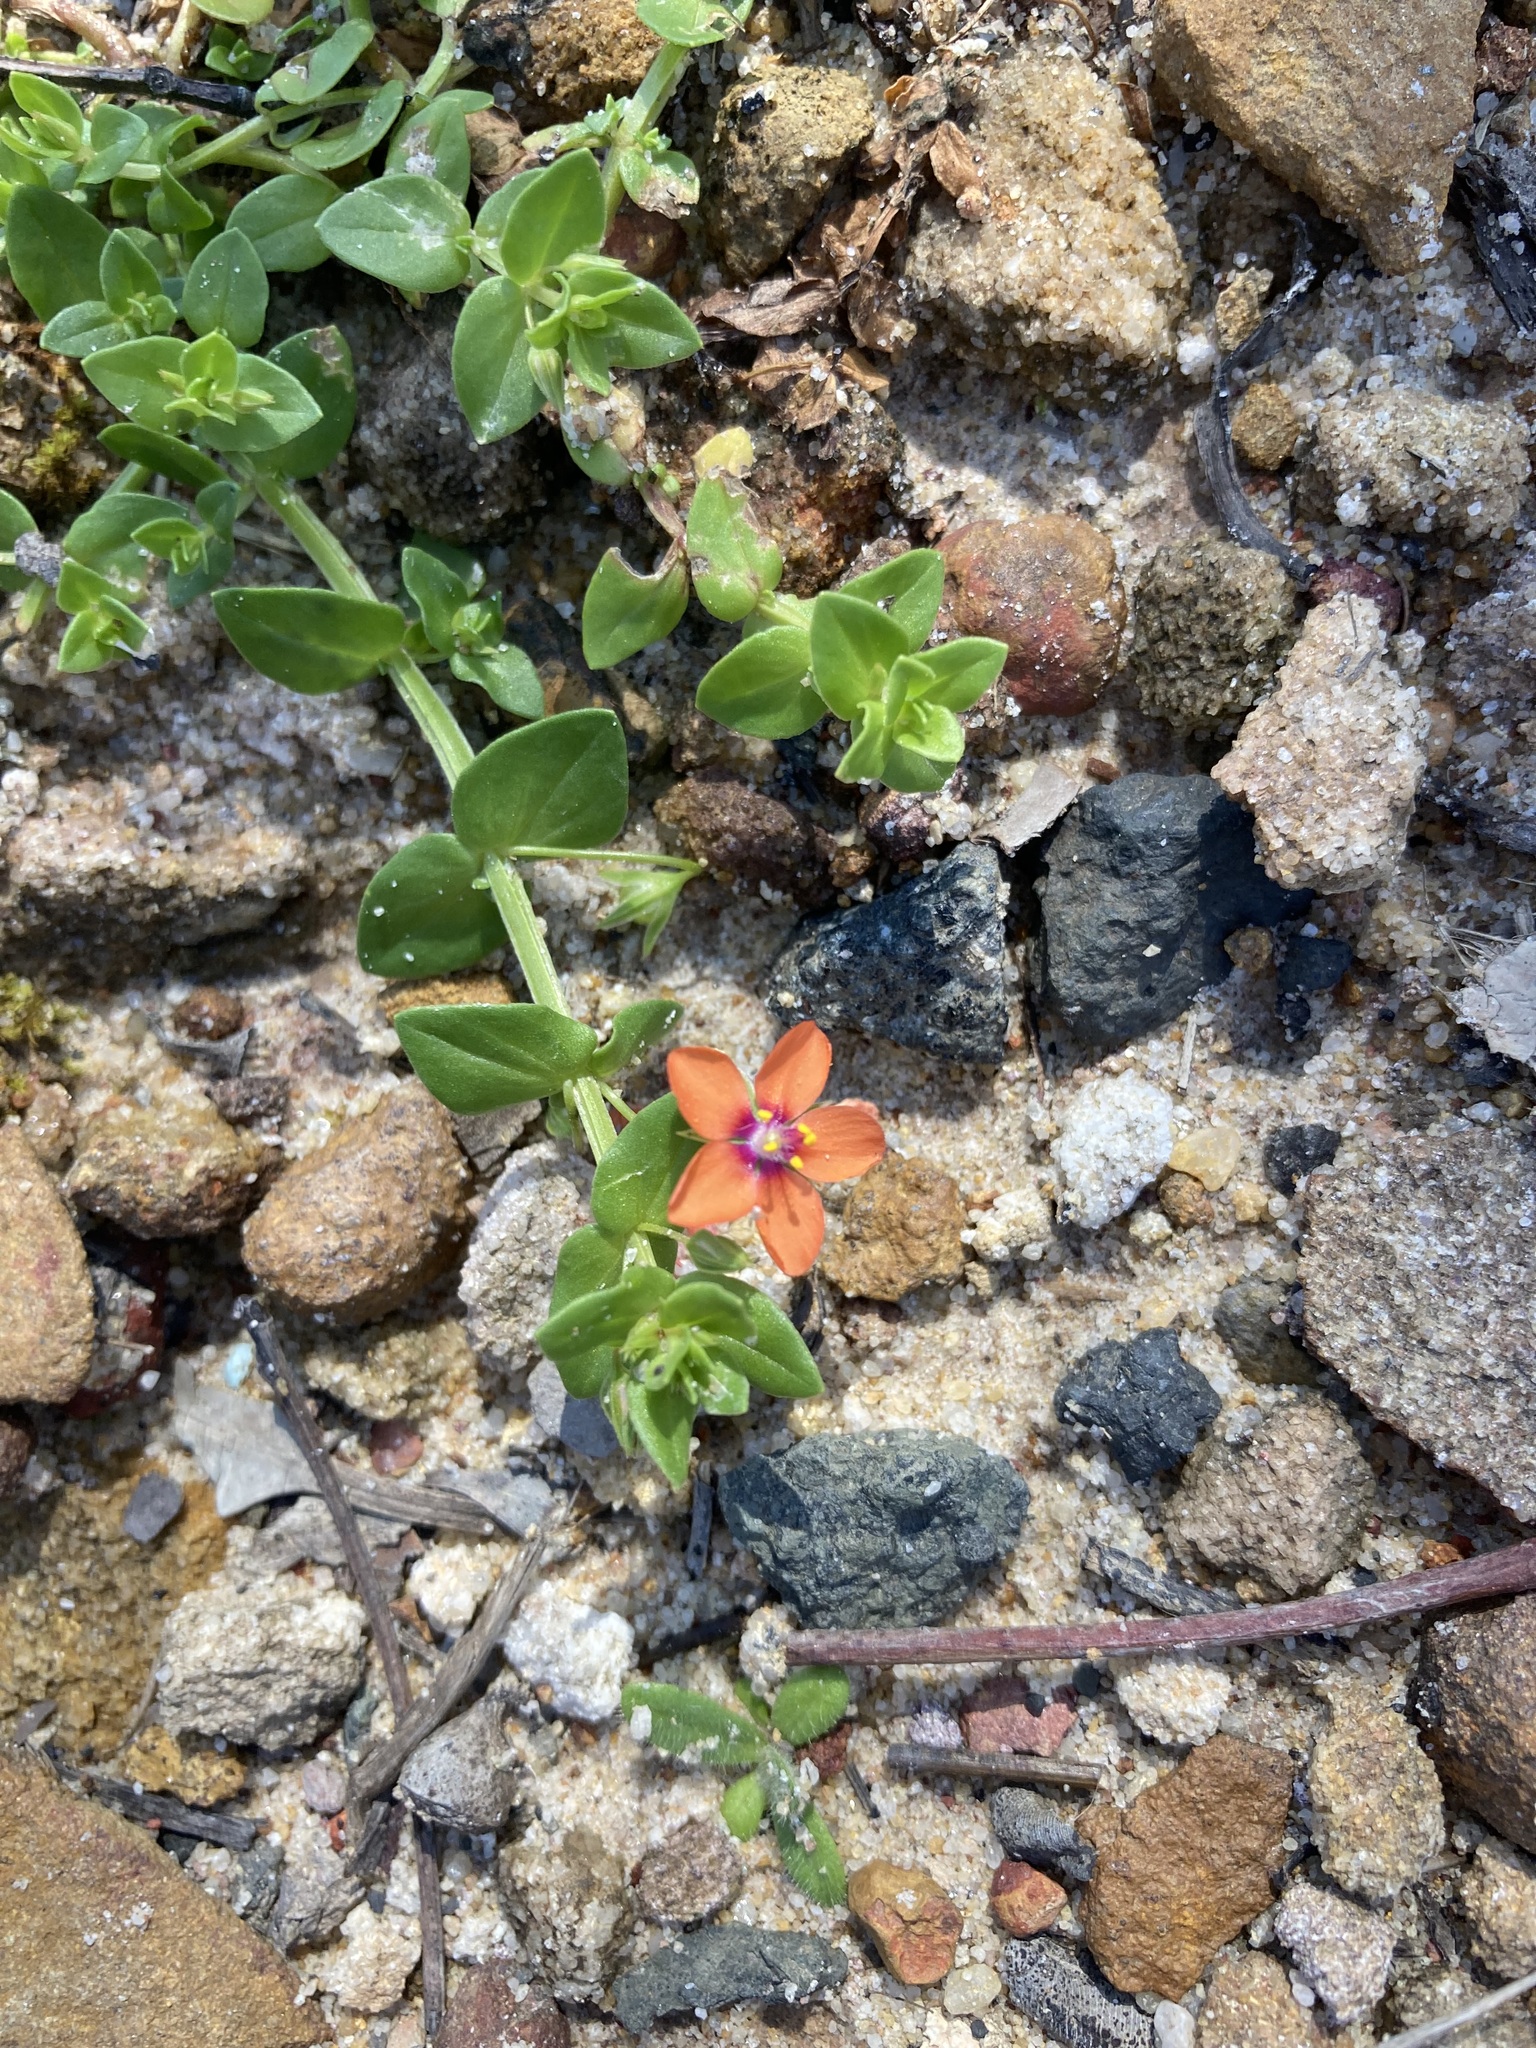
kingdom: Plantae
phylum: Tracheophyta
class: Magnoliopsida
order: Ericales
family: Primulaceae
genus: Lysimachia
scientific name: Lysimachia arvensis
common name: Scarlet pimpernel
